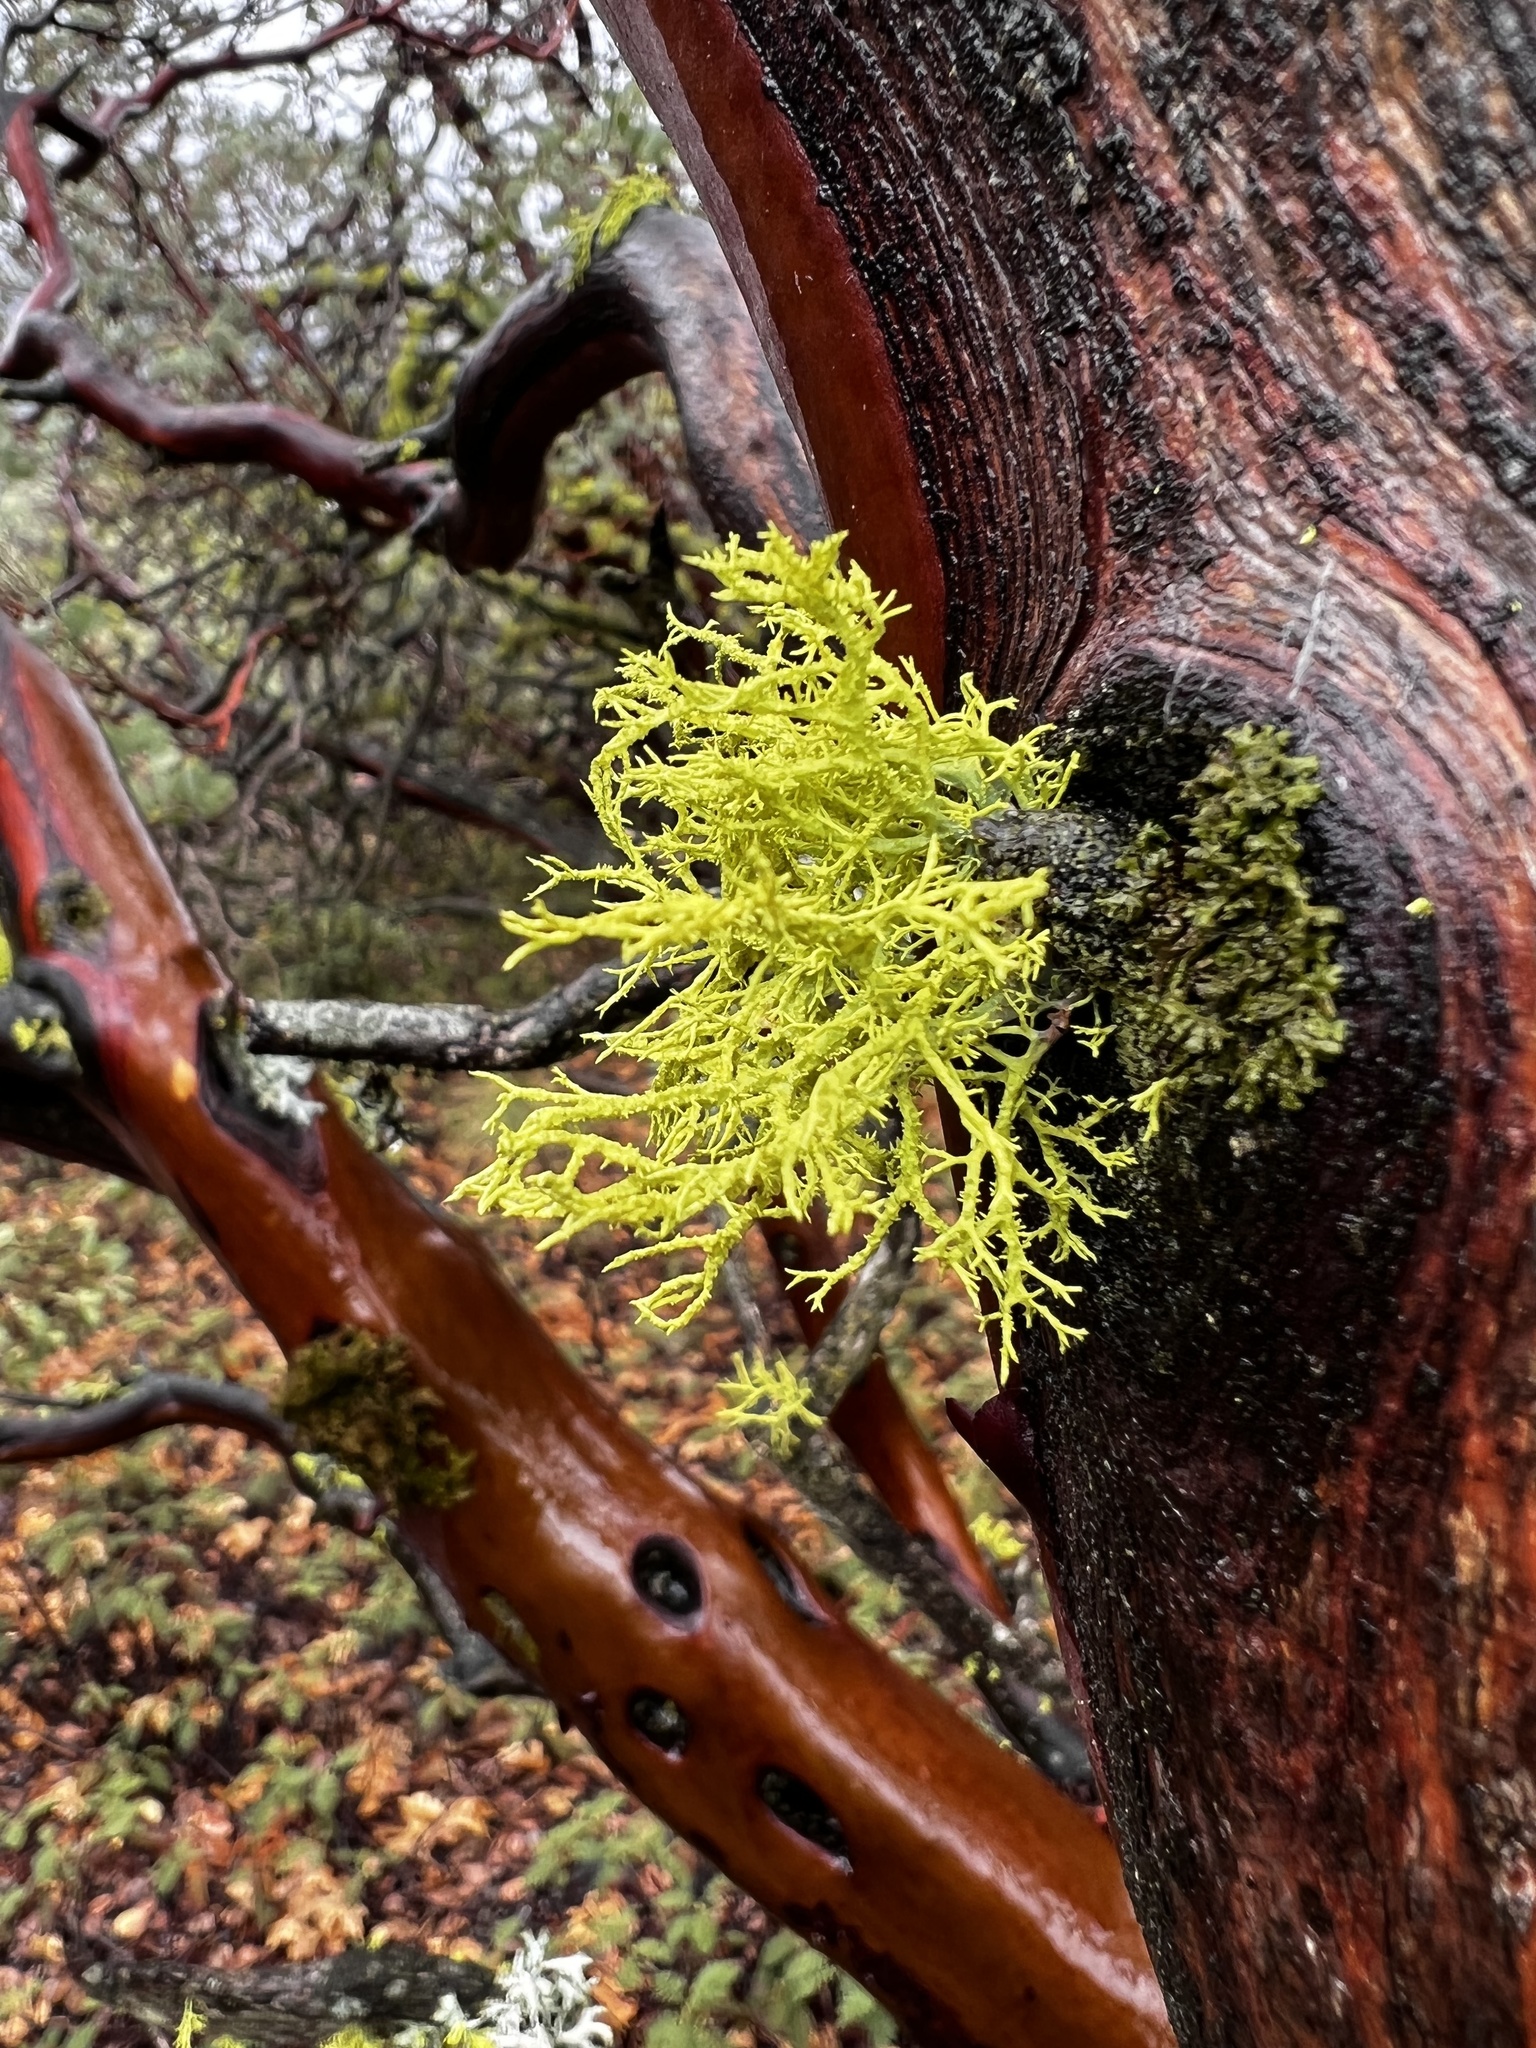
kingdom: Fungi
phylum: Ascomycota
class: Lecanoromycetes
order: Lecanorales
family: Parmeliaceae
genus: Letharia
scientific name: Letharia vulpina
